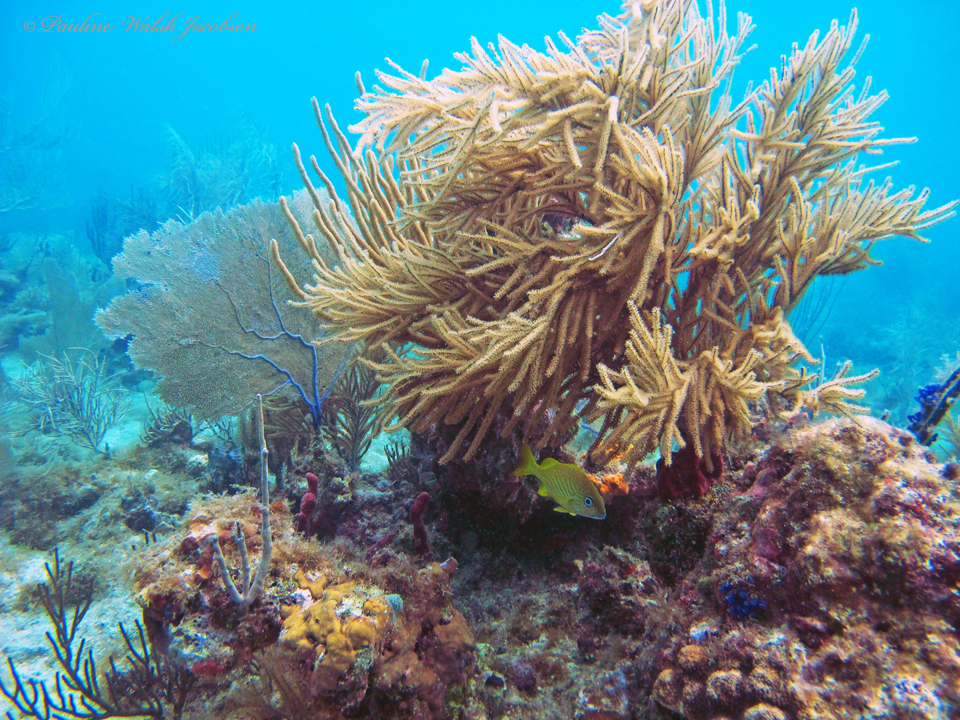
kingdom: Animalia
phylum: Chordata
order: Perciformes
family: Haemulidae
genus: Haemulon
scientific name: Haemulon flavolineatum
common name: French grunt
